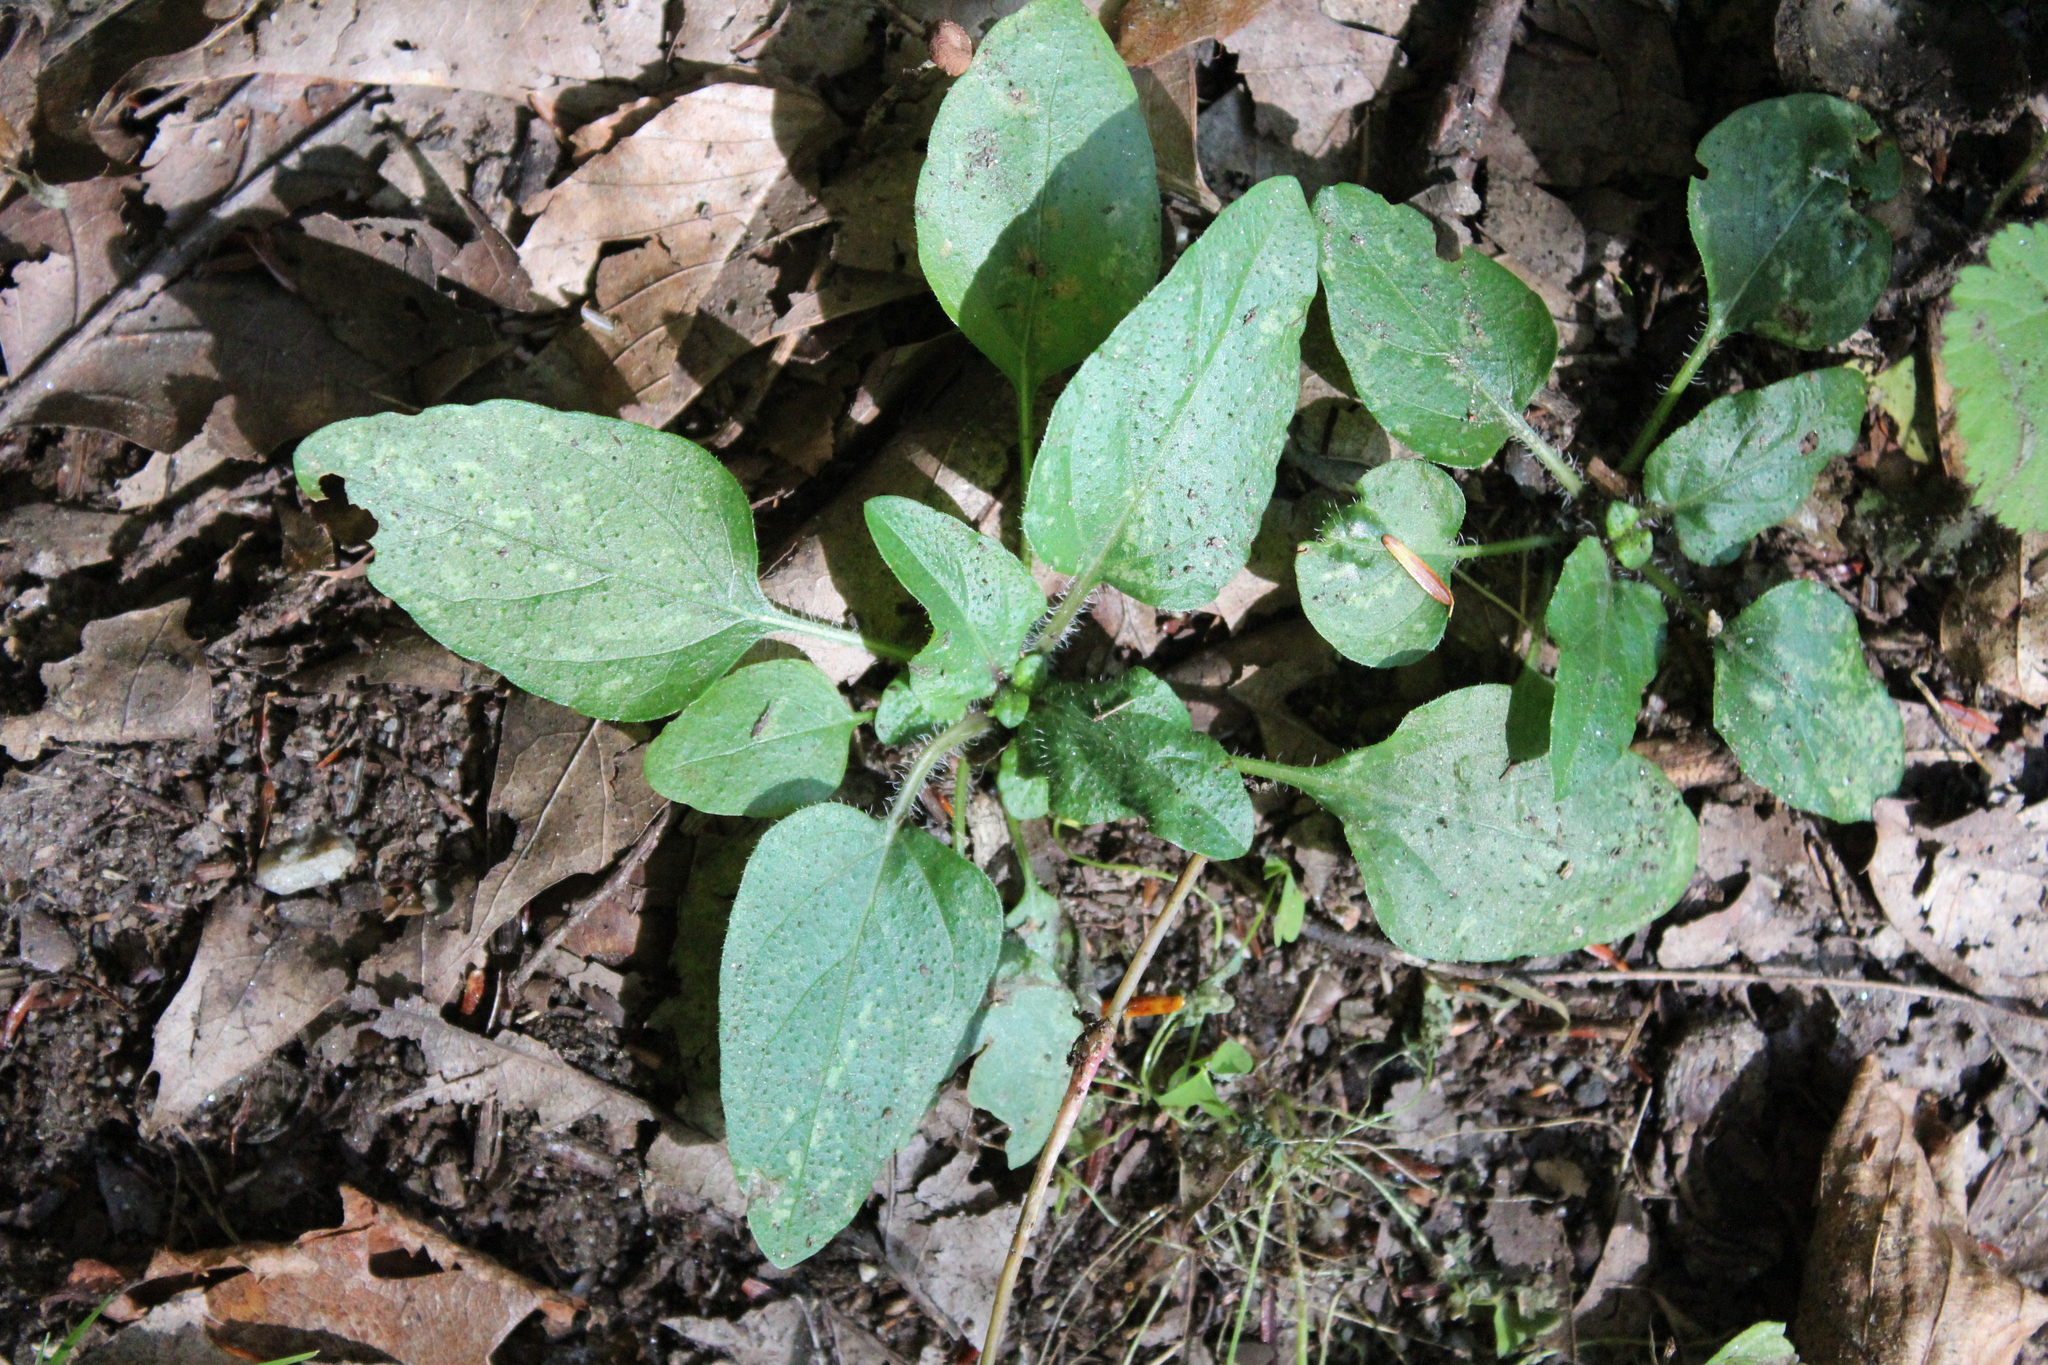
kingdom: Plantae
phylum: Tracheophyta
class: Magnoliopsida
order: Lamiales
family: Lamiaceae
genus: Prunella
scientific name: Prunella vulgaris
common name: Heal-all
